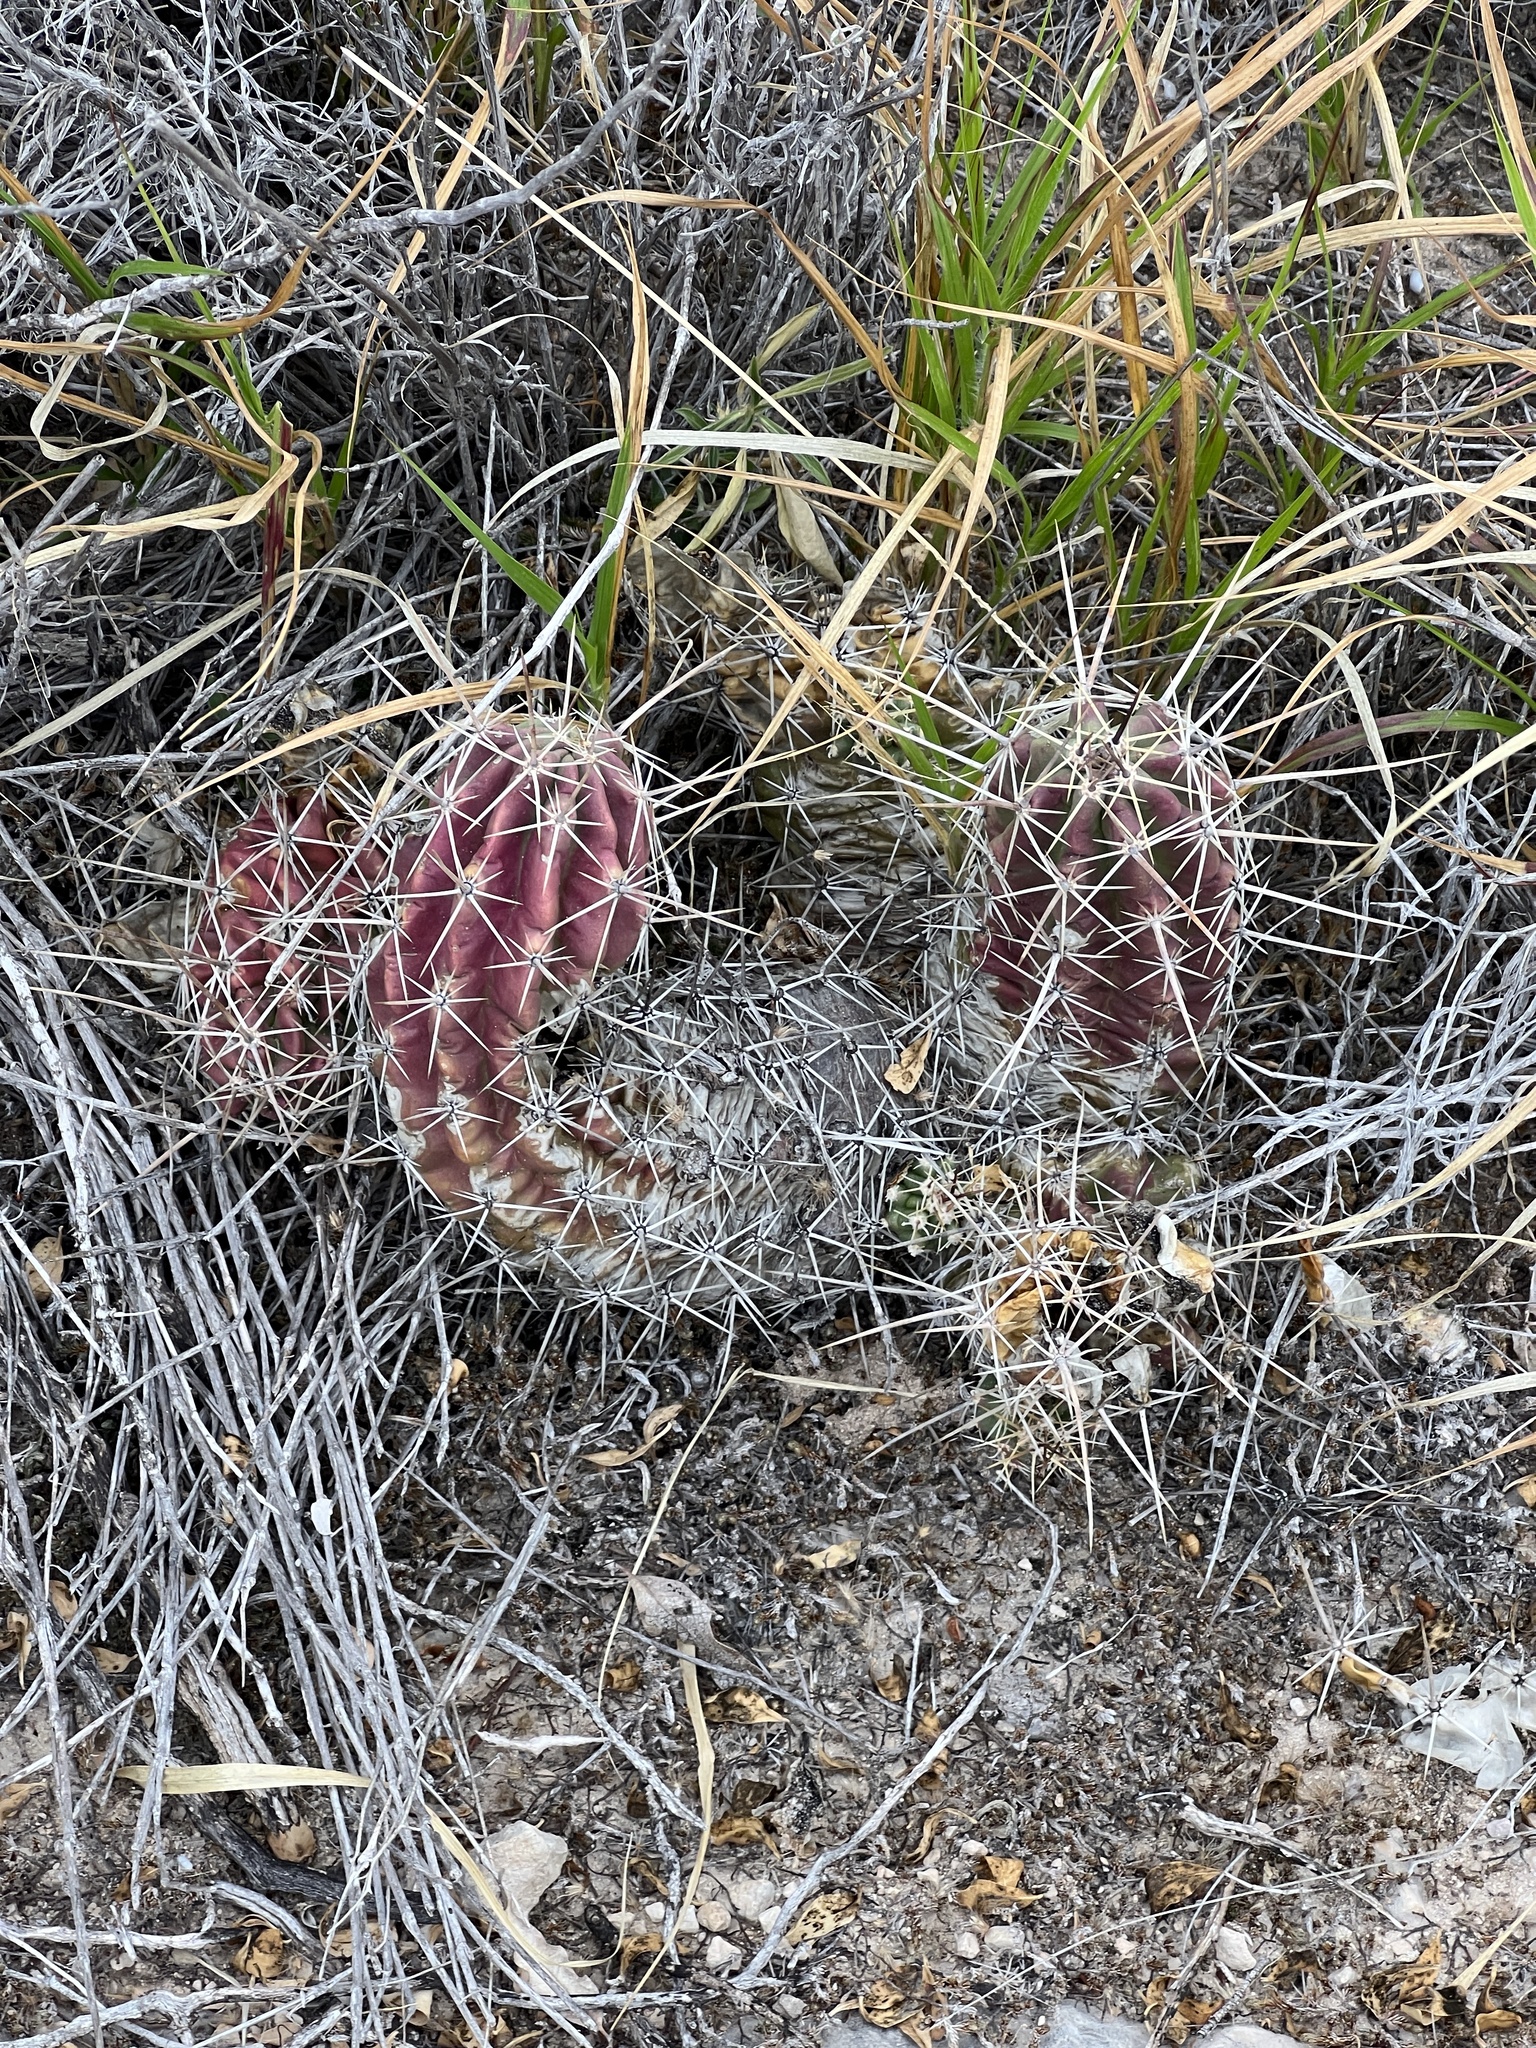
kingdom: Plantae
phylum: Tracheophyta
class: Magnoliopsida
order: Caryophyllales
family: Cactaceae
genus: Echinocereus
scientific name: Echinocereus enneacanthus
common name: Pitaya
